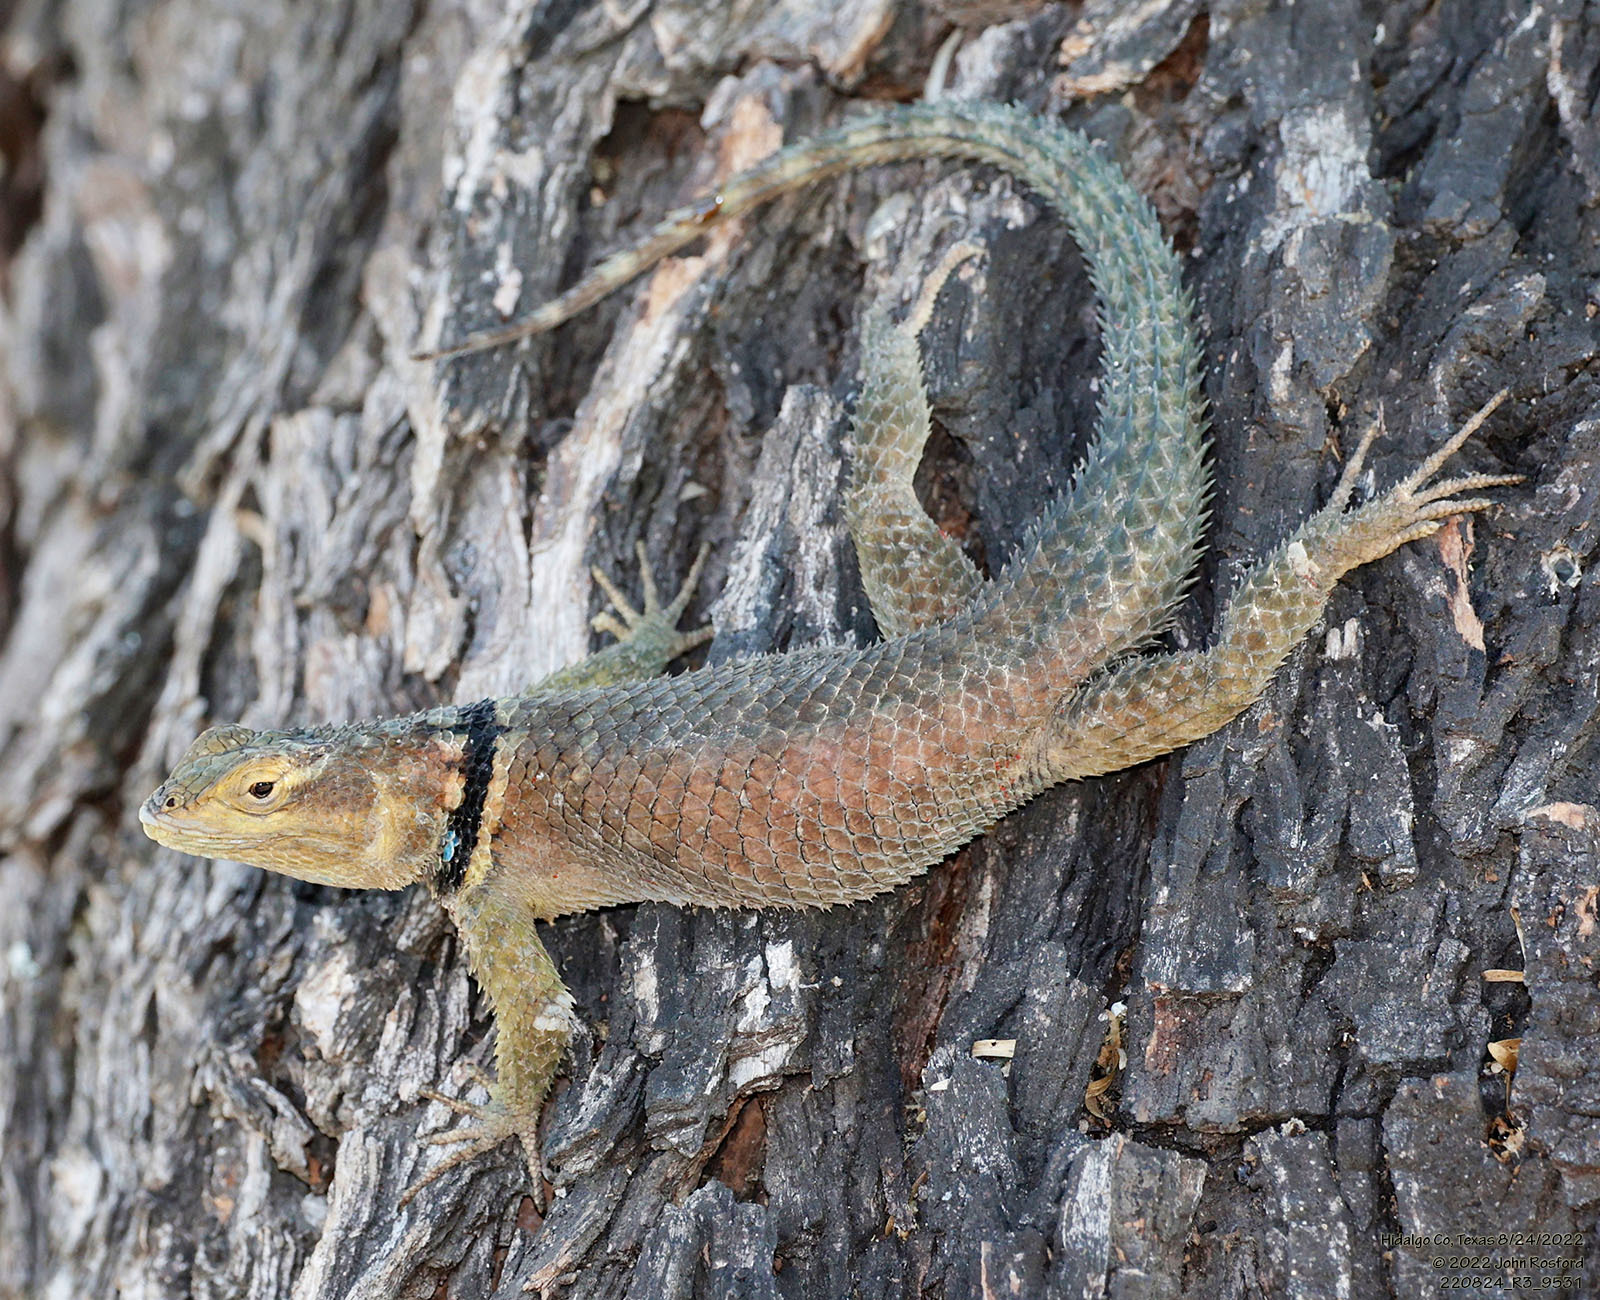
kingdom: Animalia
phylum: Chordata
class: Squamata
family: Phrynosomatidae
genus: Sceloporus
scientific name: Sceloporus cyanogenys
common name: Blue spiny lizard
